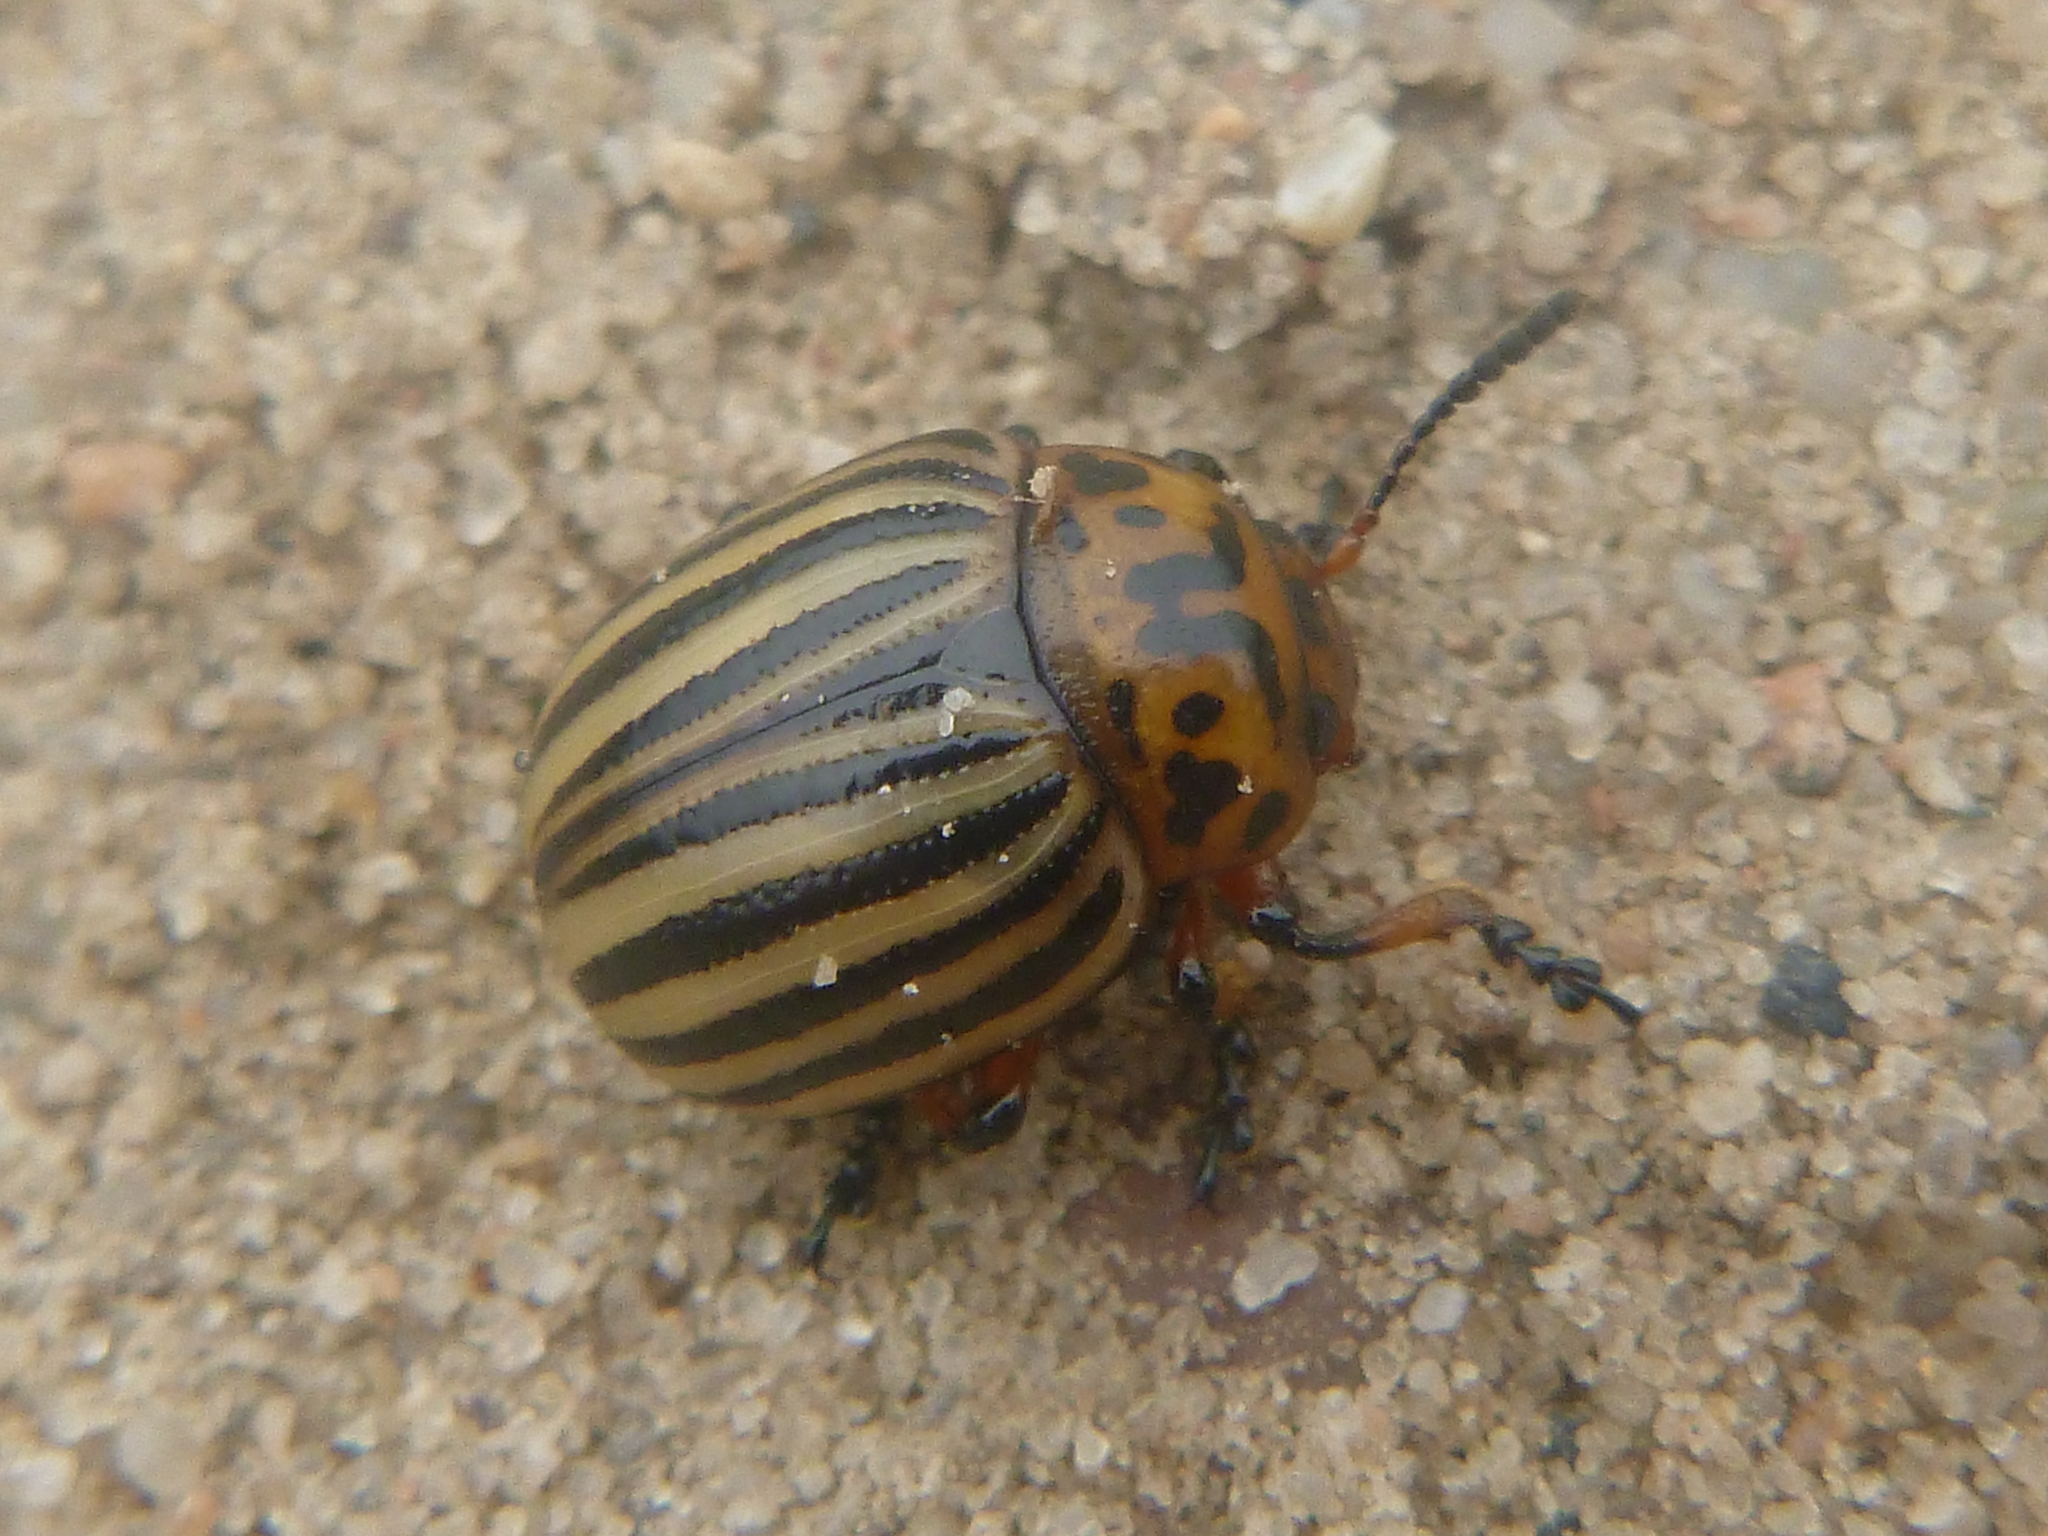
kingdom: Animalia
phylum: Arthropoda
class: Insecta
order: Coleoptera
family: Chrysomelidae
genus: Leptinotarsa
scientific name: Leptinotarsa decemlineata
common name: Colorado potato beetle
